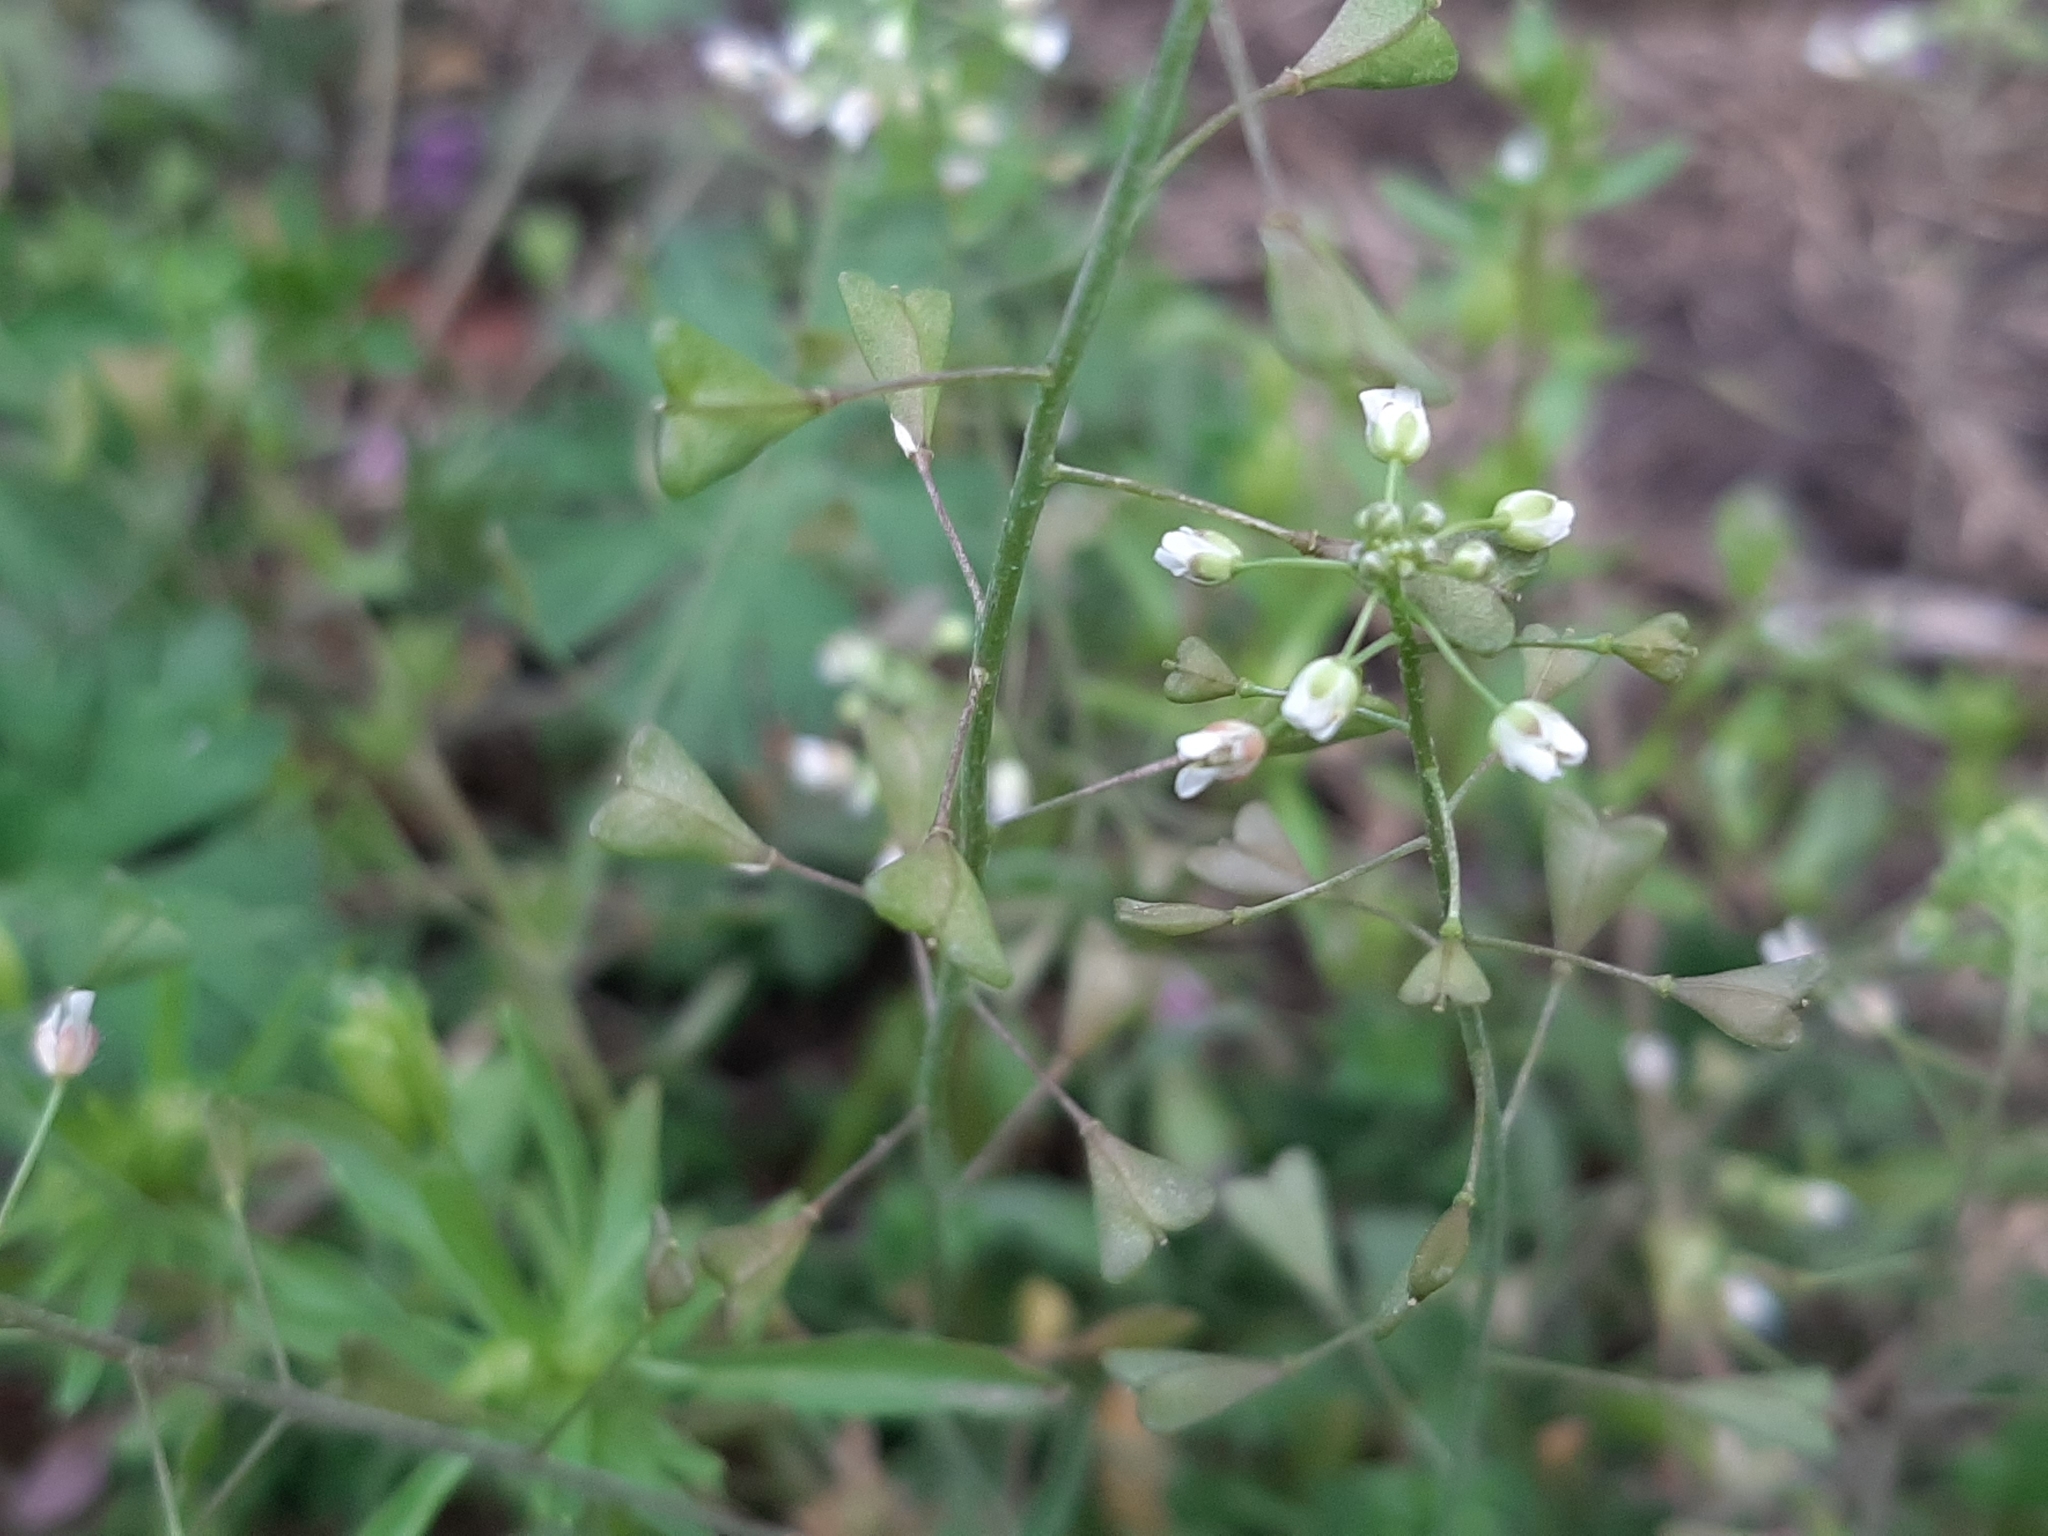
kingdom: Plantae
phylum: Tracheophyta
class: Magnoliopsida
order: Brassicales
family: Brassicaceae
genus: Capsella
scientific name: Capsella bursa-pastoris
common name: Shepherd's purse
